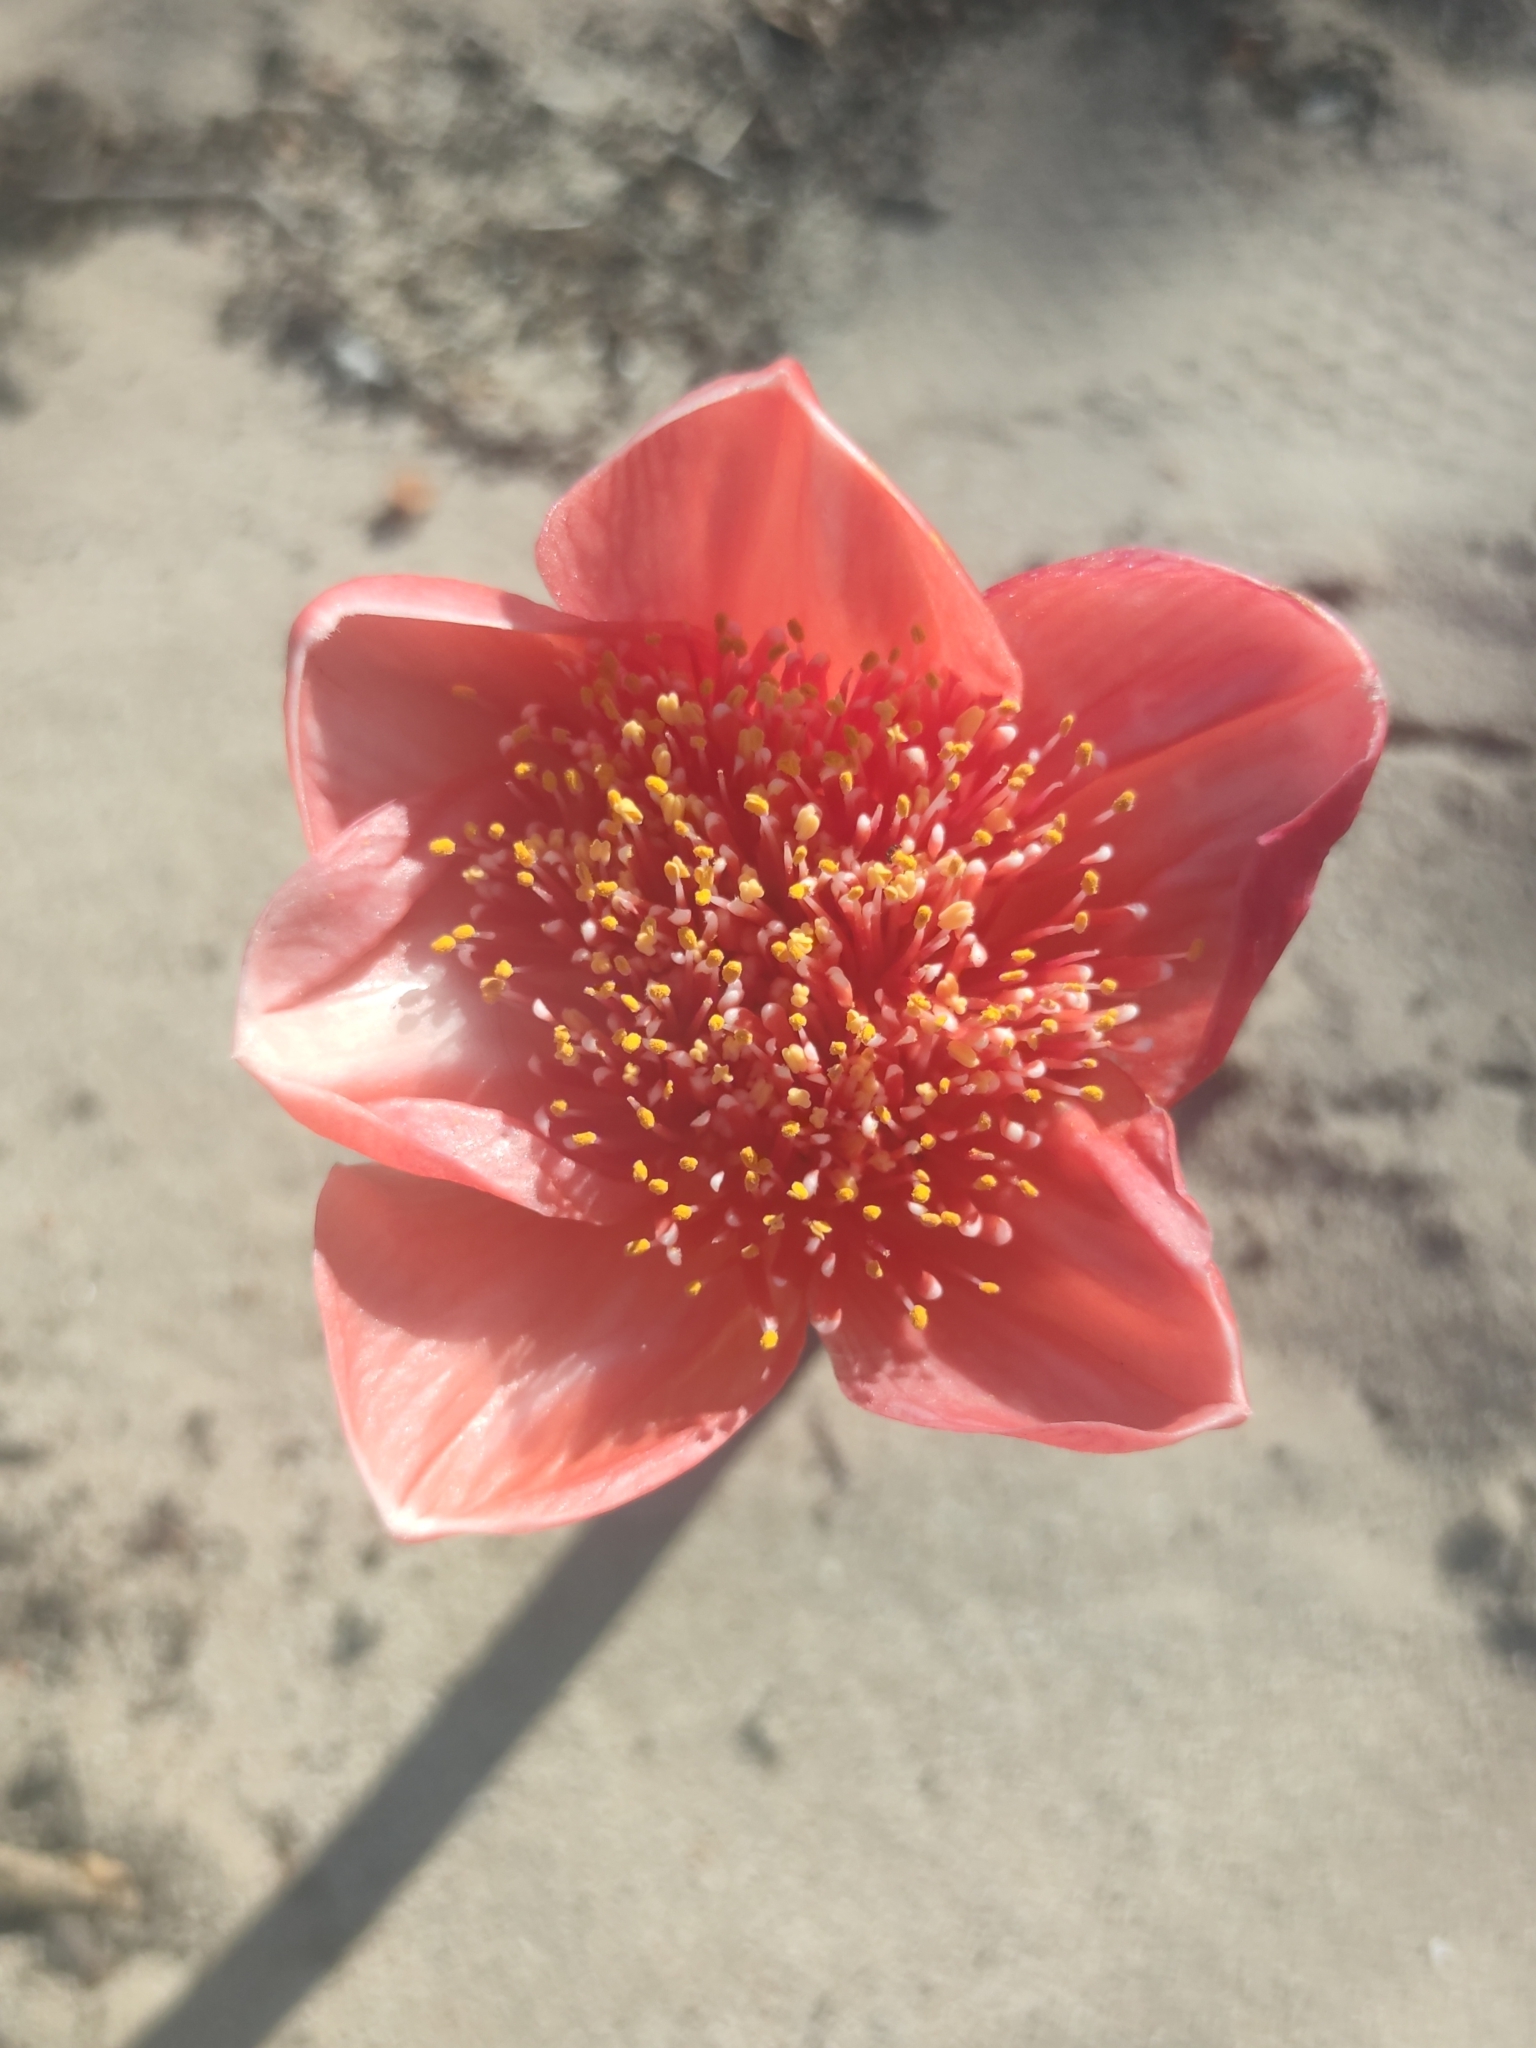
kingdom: Plantae
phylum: Tracheophyta
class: Liliopsida
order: Asparagales
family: Amaryllidaceae
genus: Haemanthus
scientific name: Haemanthus coccineus
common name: Cape-tulip
